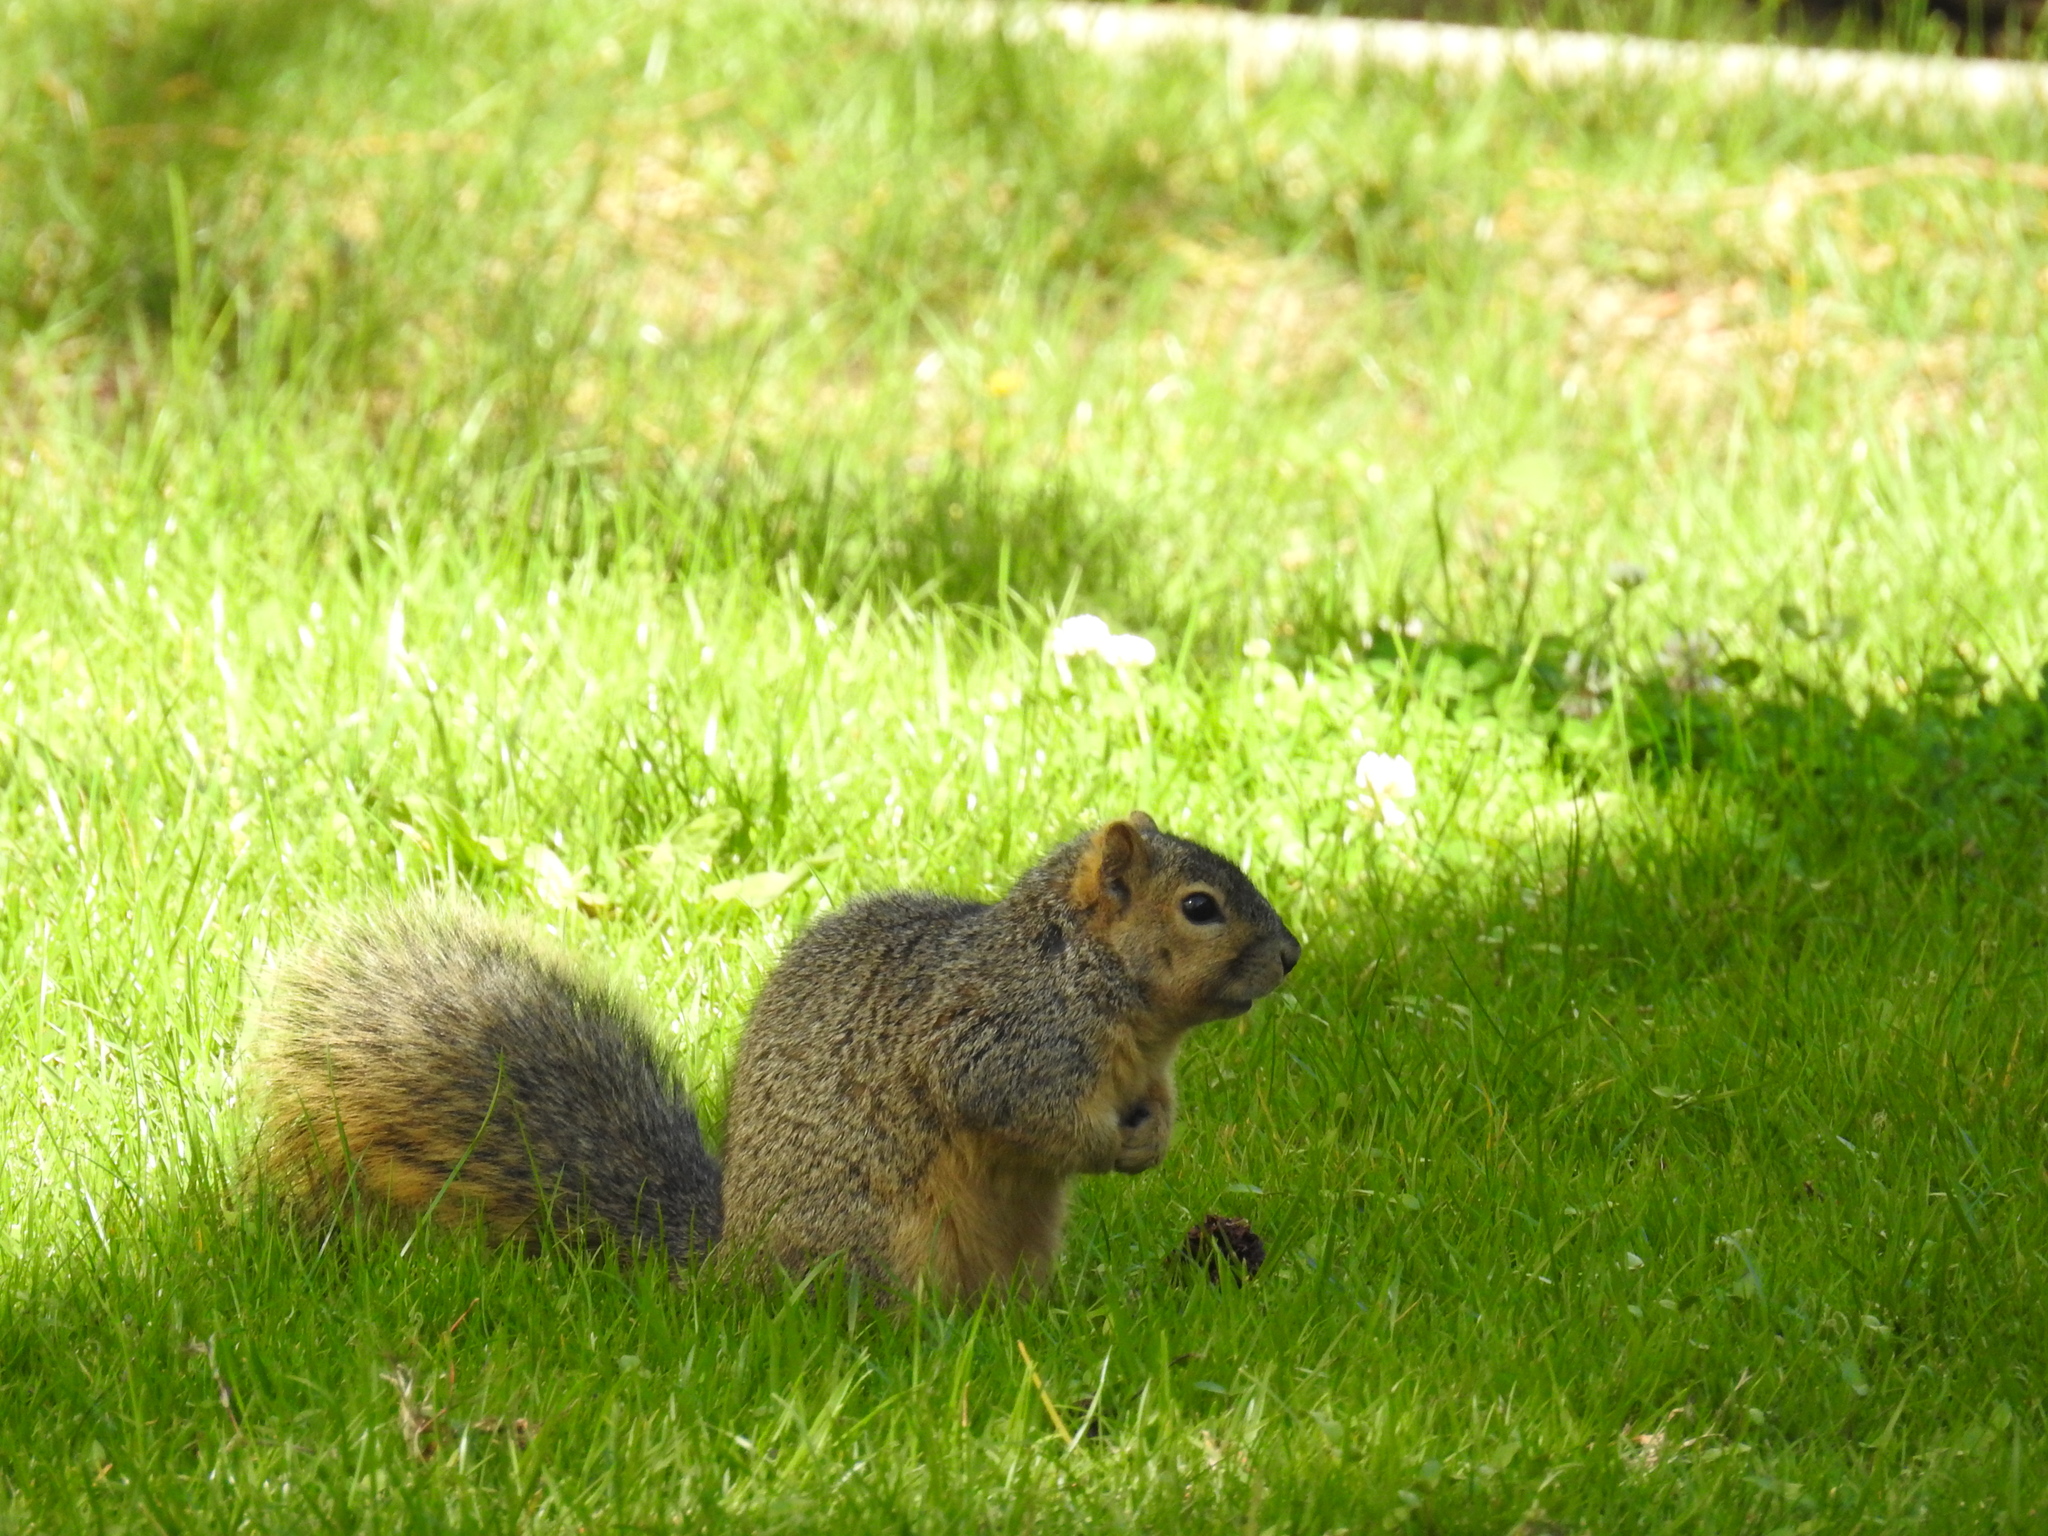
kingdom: Animalia
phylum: Chordata
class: Mammalia
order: Rodentia
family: Sciuridae
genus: Sciurus
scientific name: Sciurus niger
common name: Fox squirrel
